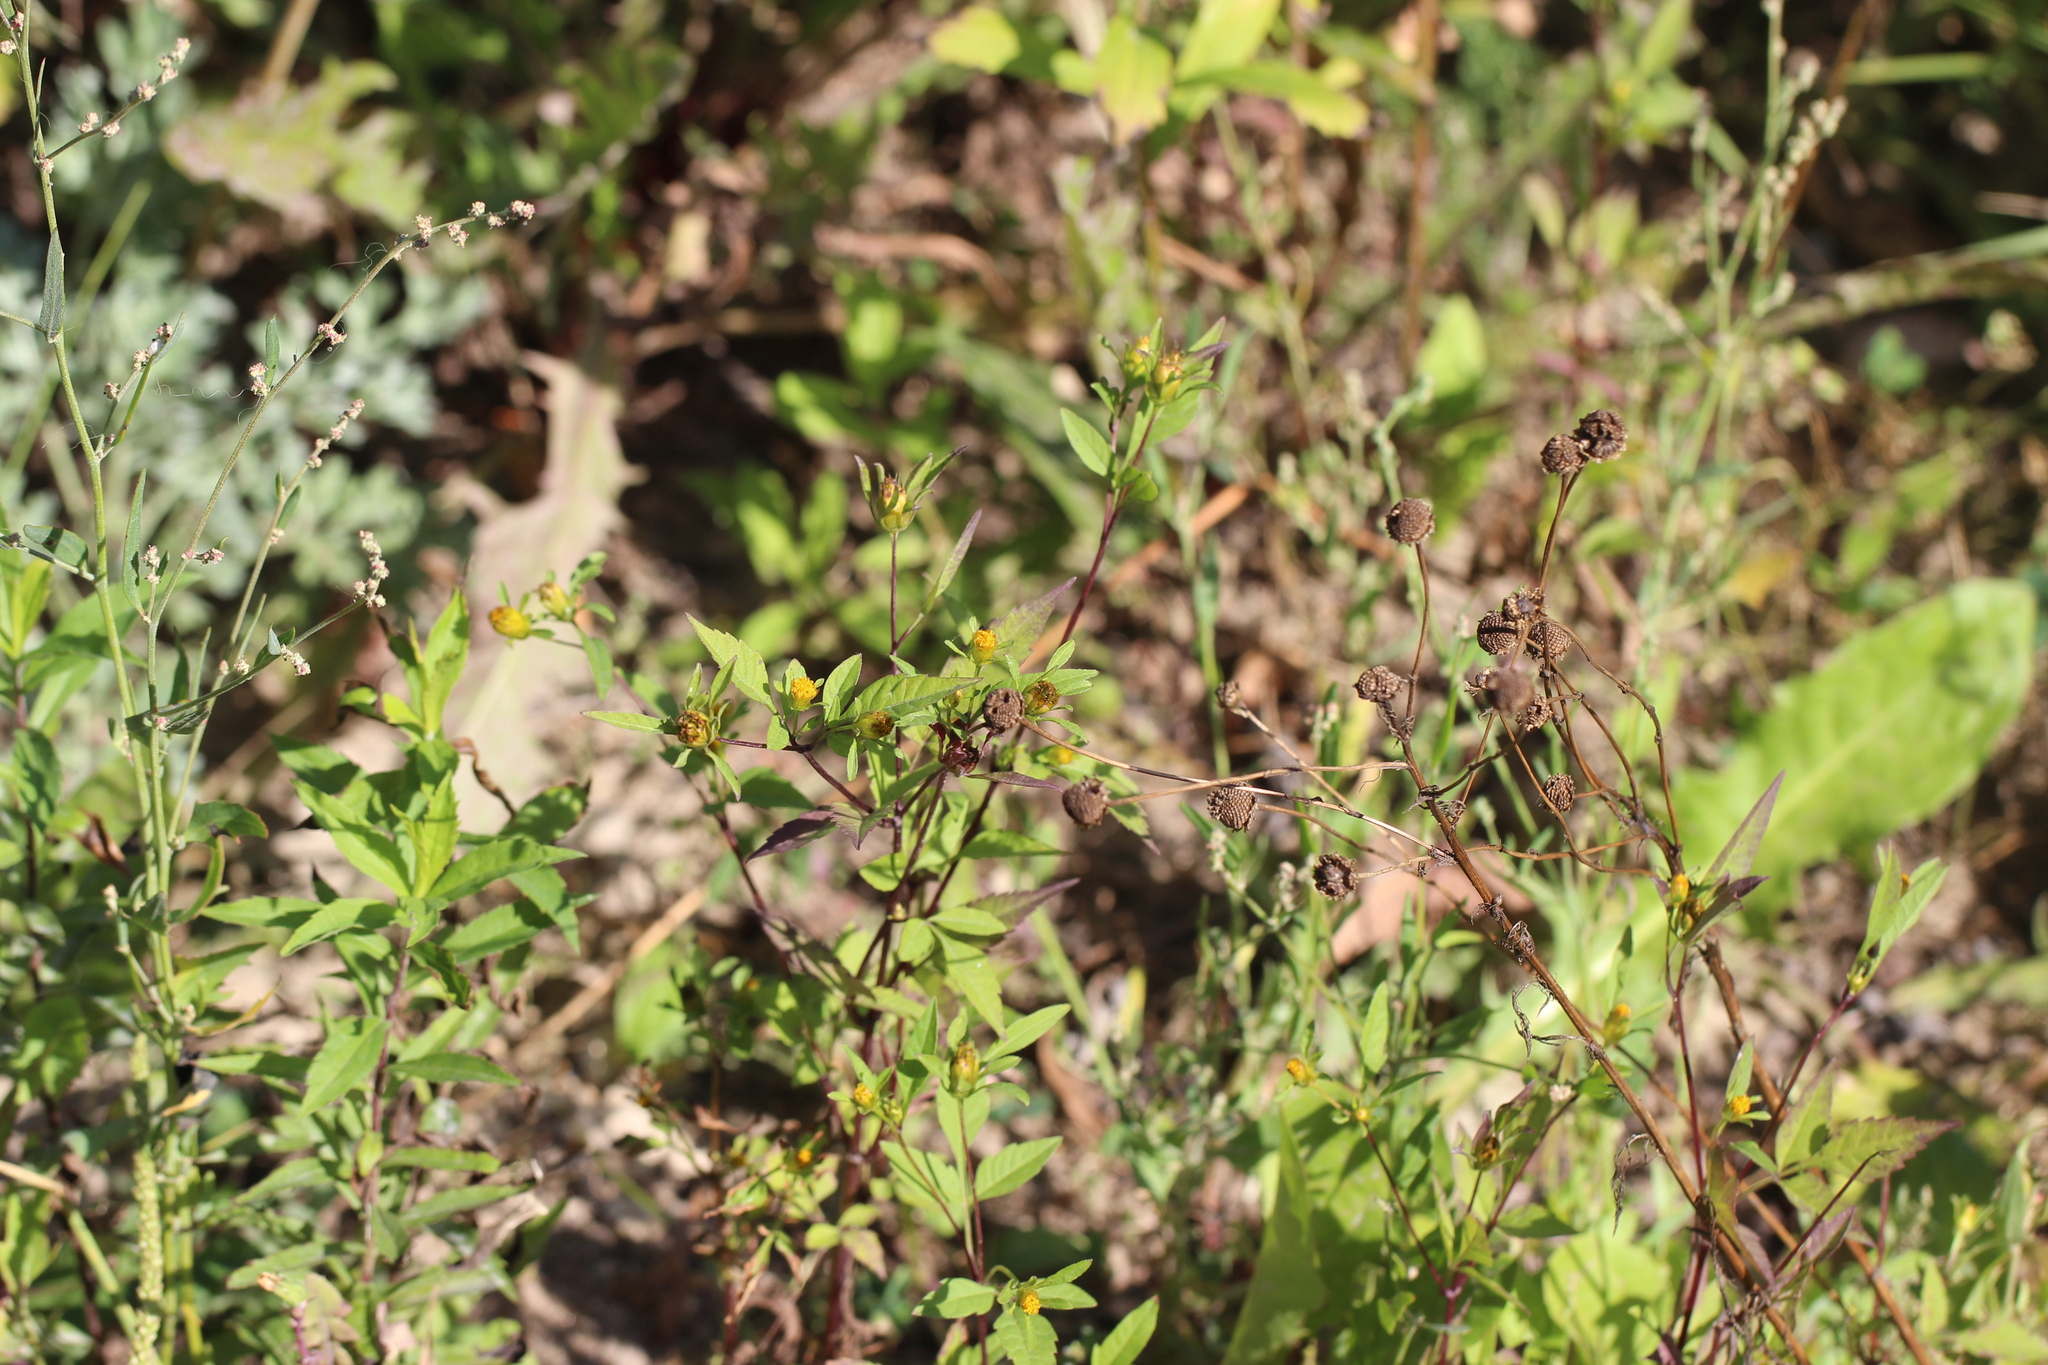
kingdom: Plantae
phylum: Tracheophyta
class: Magnoliopsida
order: Asterales
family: Asteraceae
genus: Bidens
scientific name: Bidens frondosa
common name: Beggarticks
